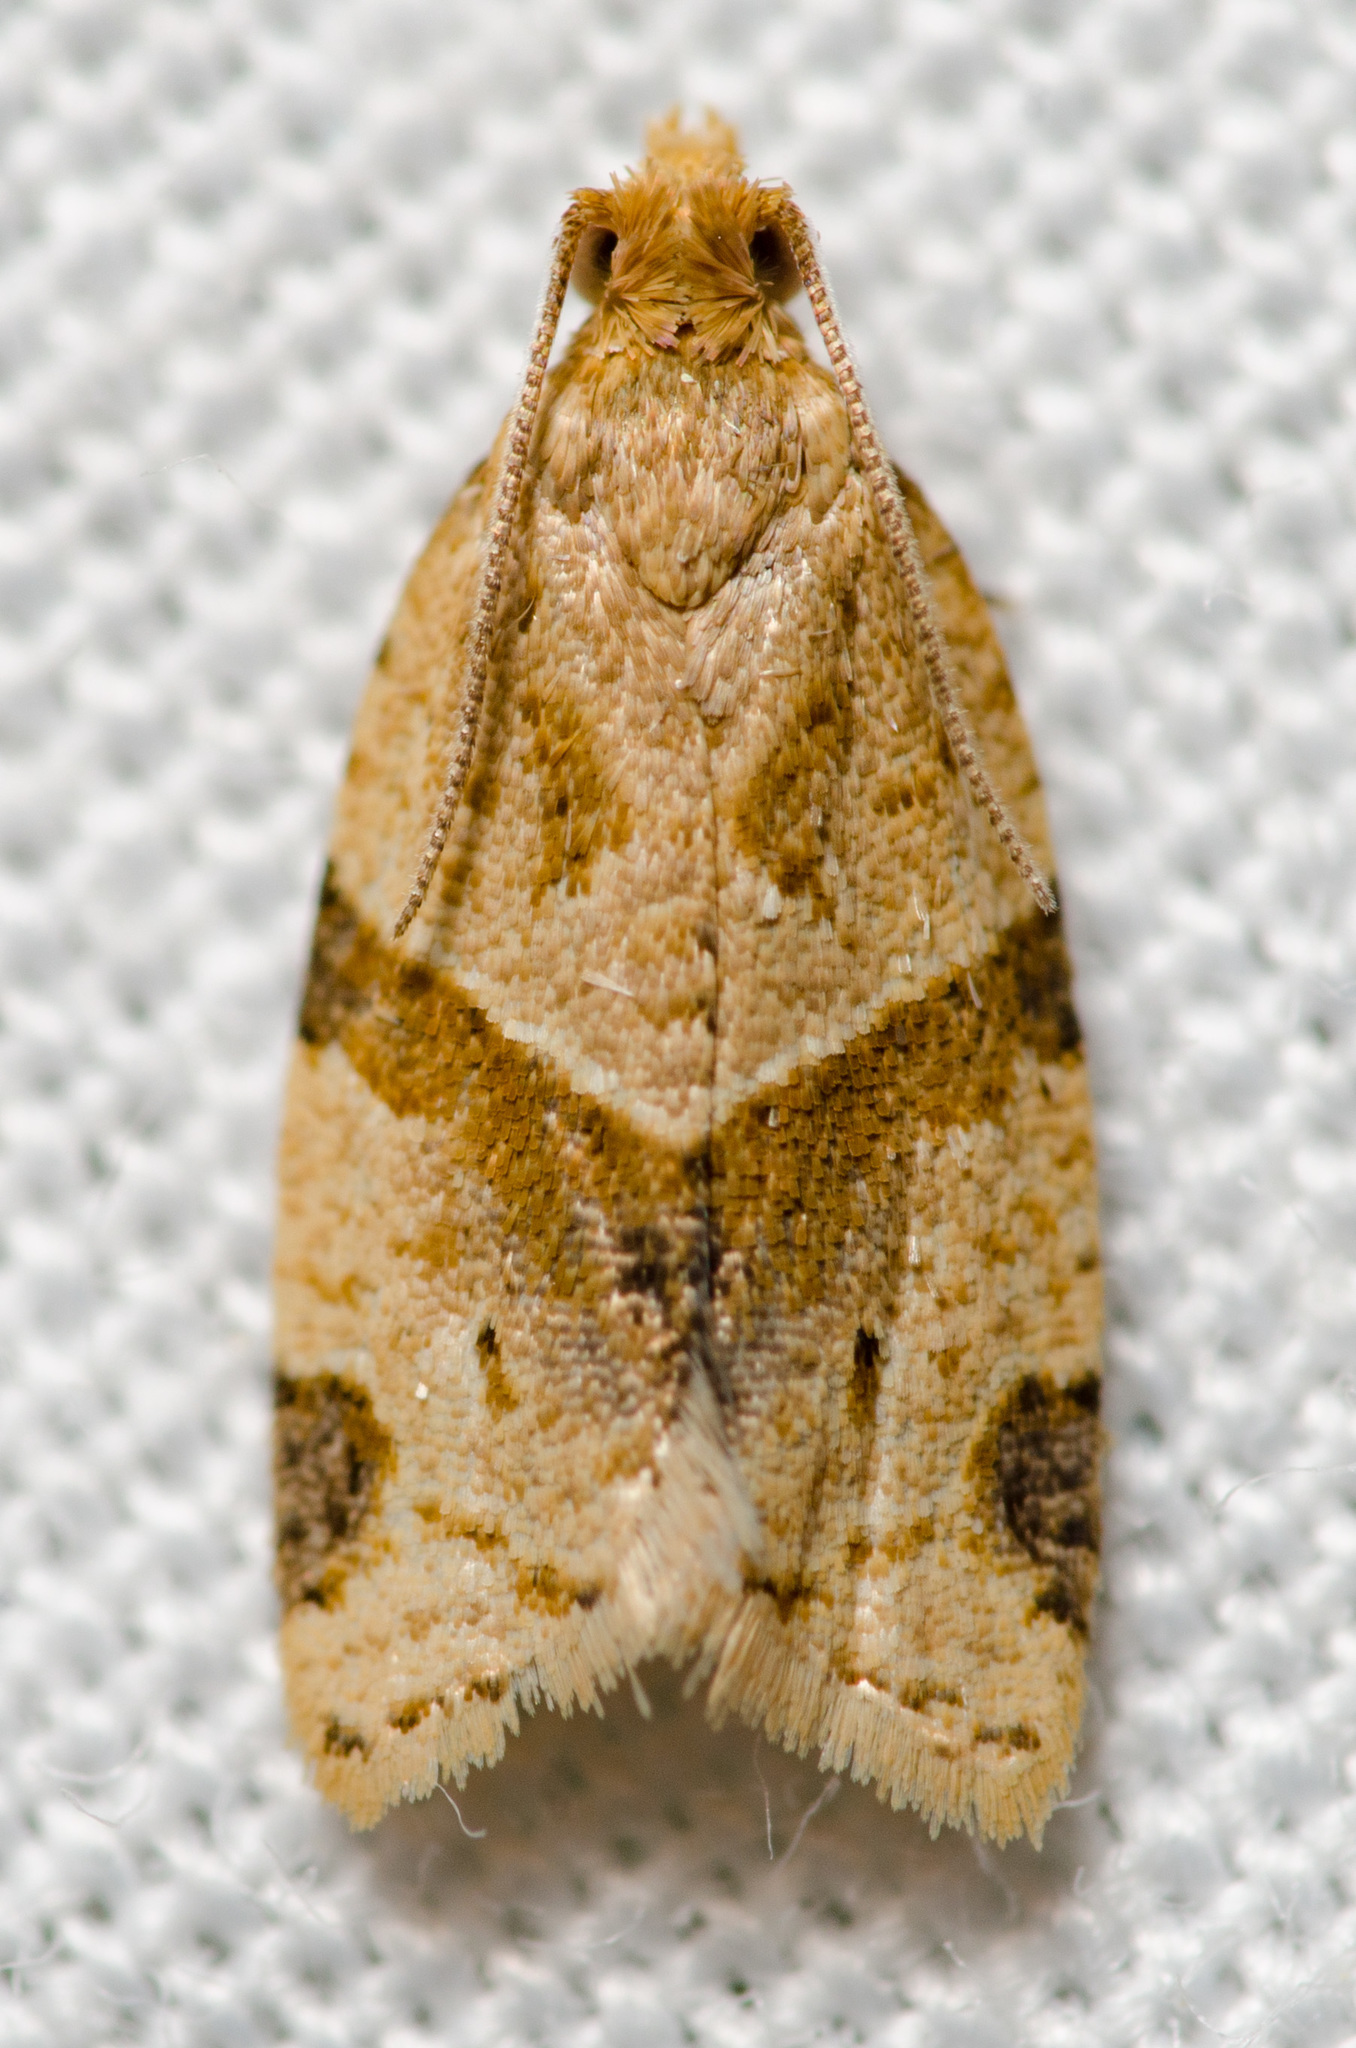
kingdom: Animalia
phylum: Arthropoda
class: Insecta
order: Lepidoptera
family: Tortricidae
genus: Clepsis
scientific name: Clepsis peritana
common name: Garden tortrix
